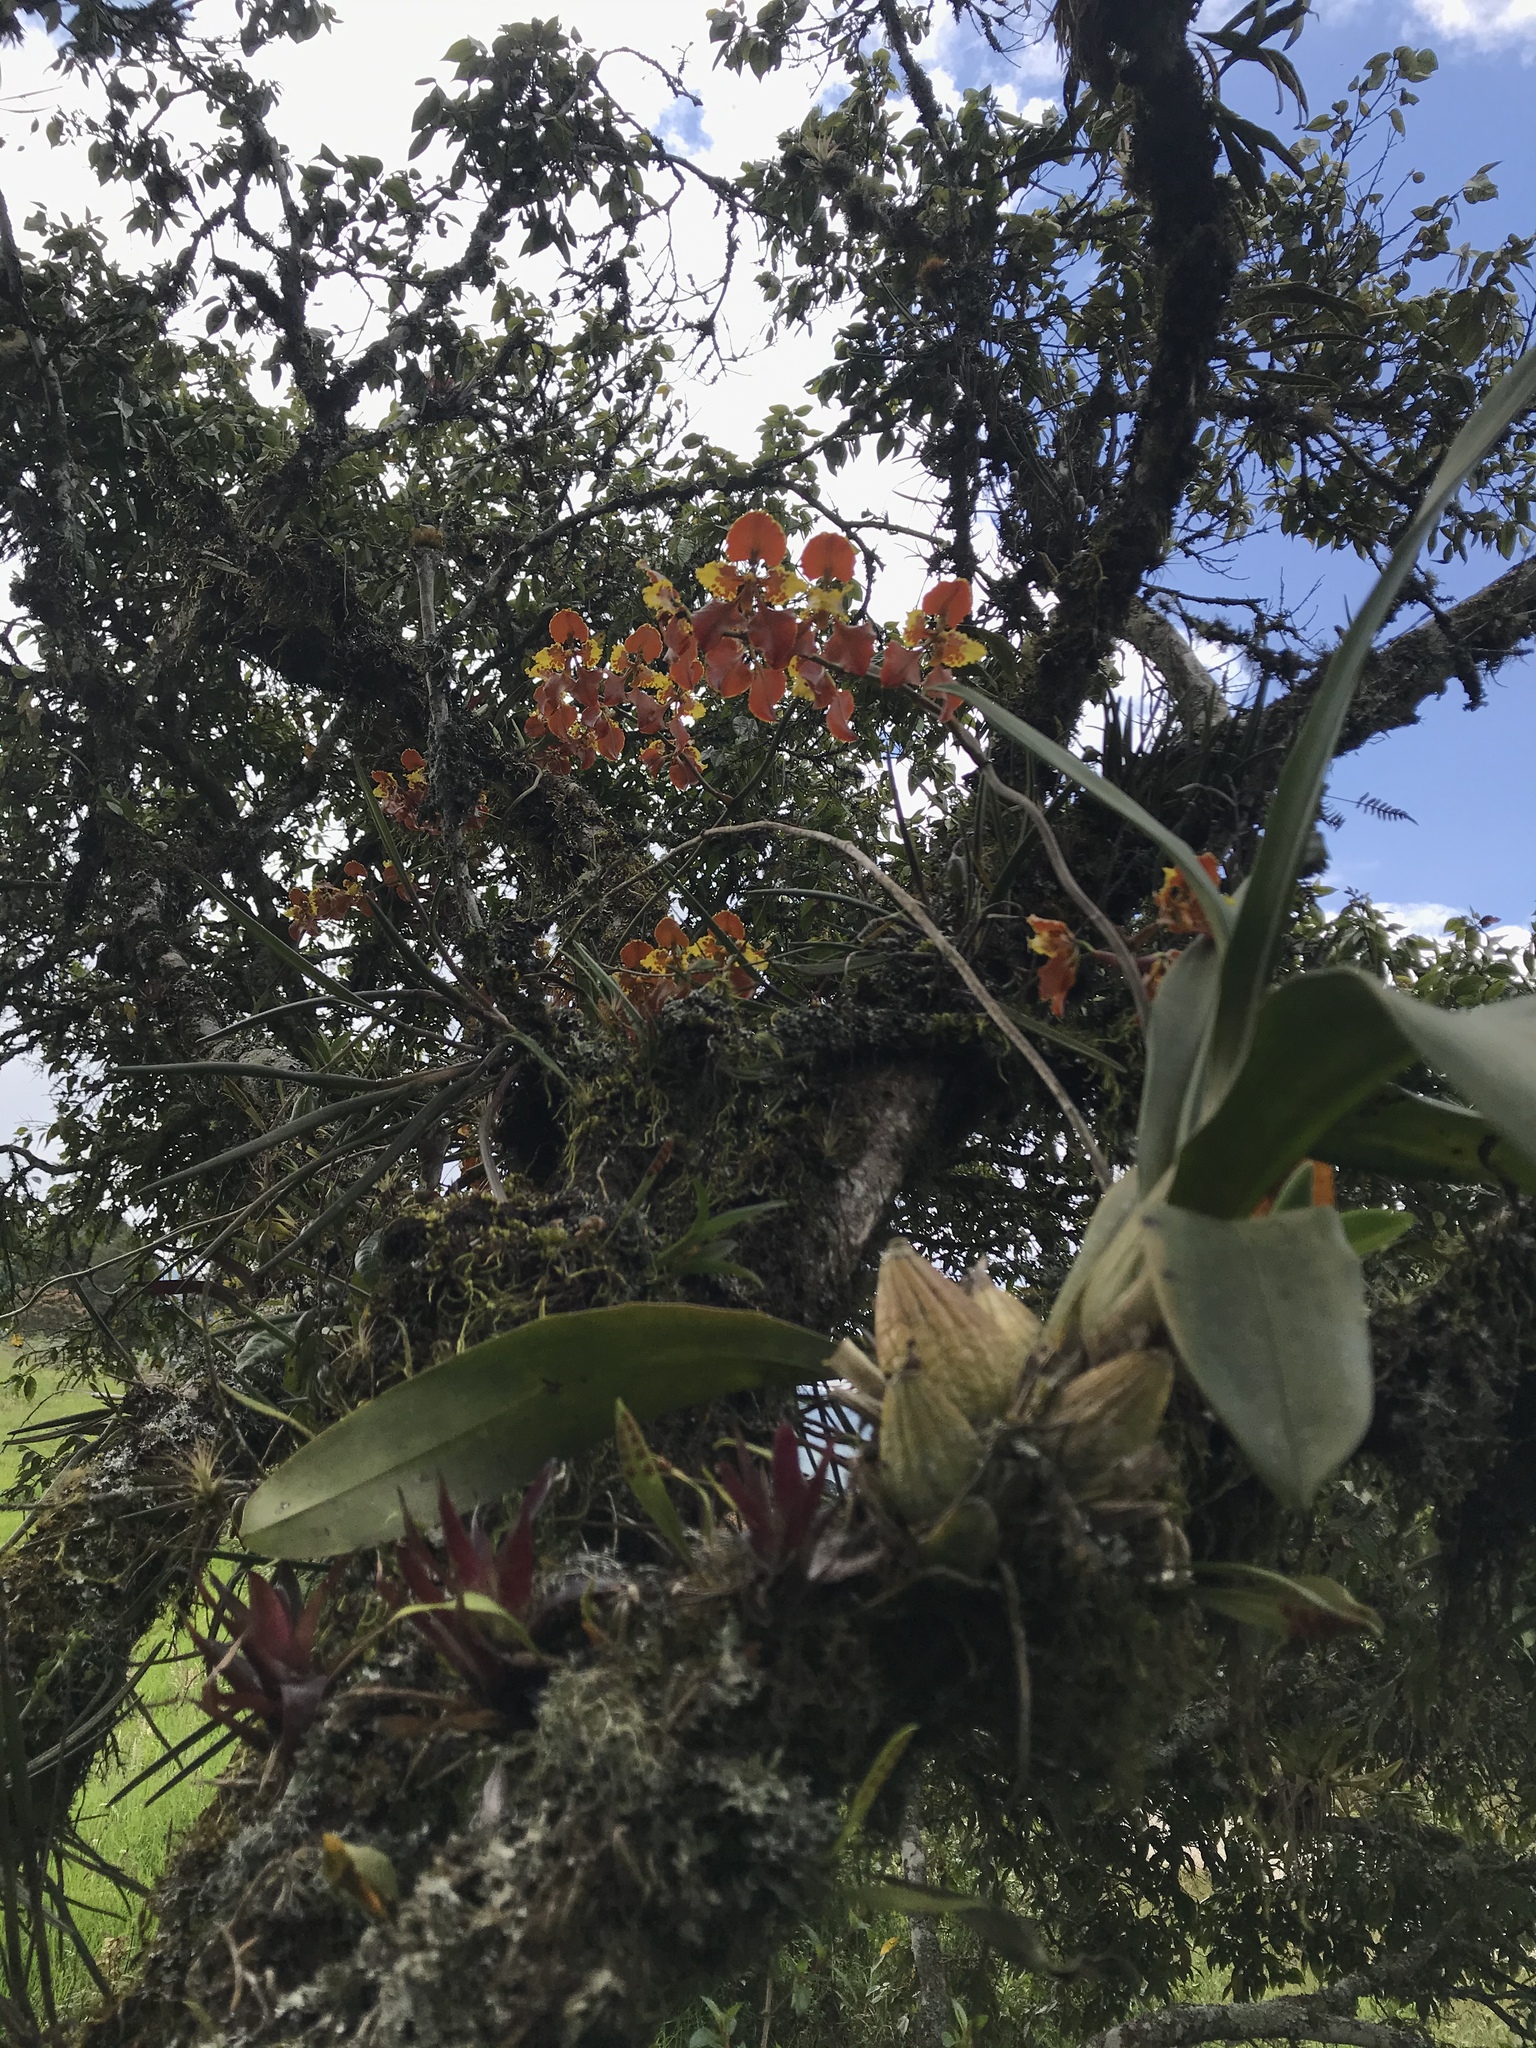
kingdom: Plantae
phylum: Tracheophyta
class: Liliopsida
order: Asparagales
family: Orchidaceae
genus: Cyrtochilum
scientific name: Cyrtochilum tetracopis
